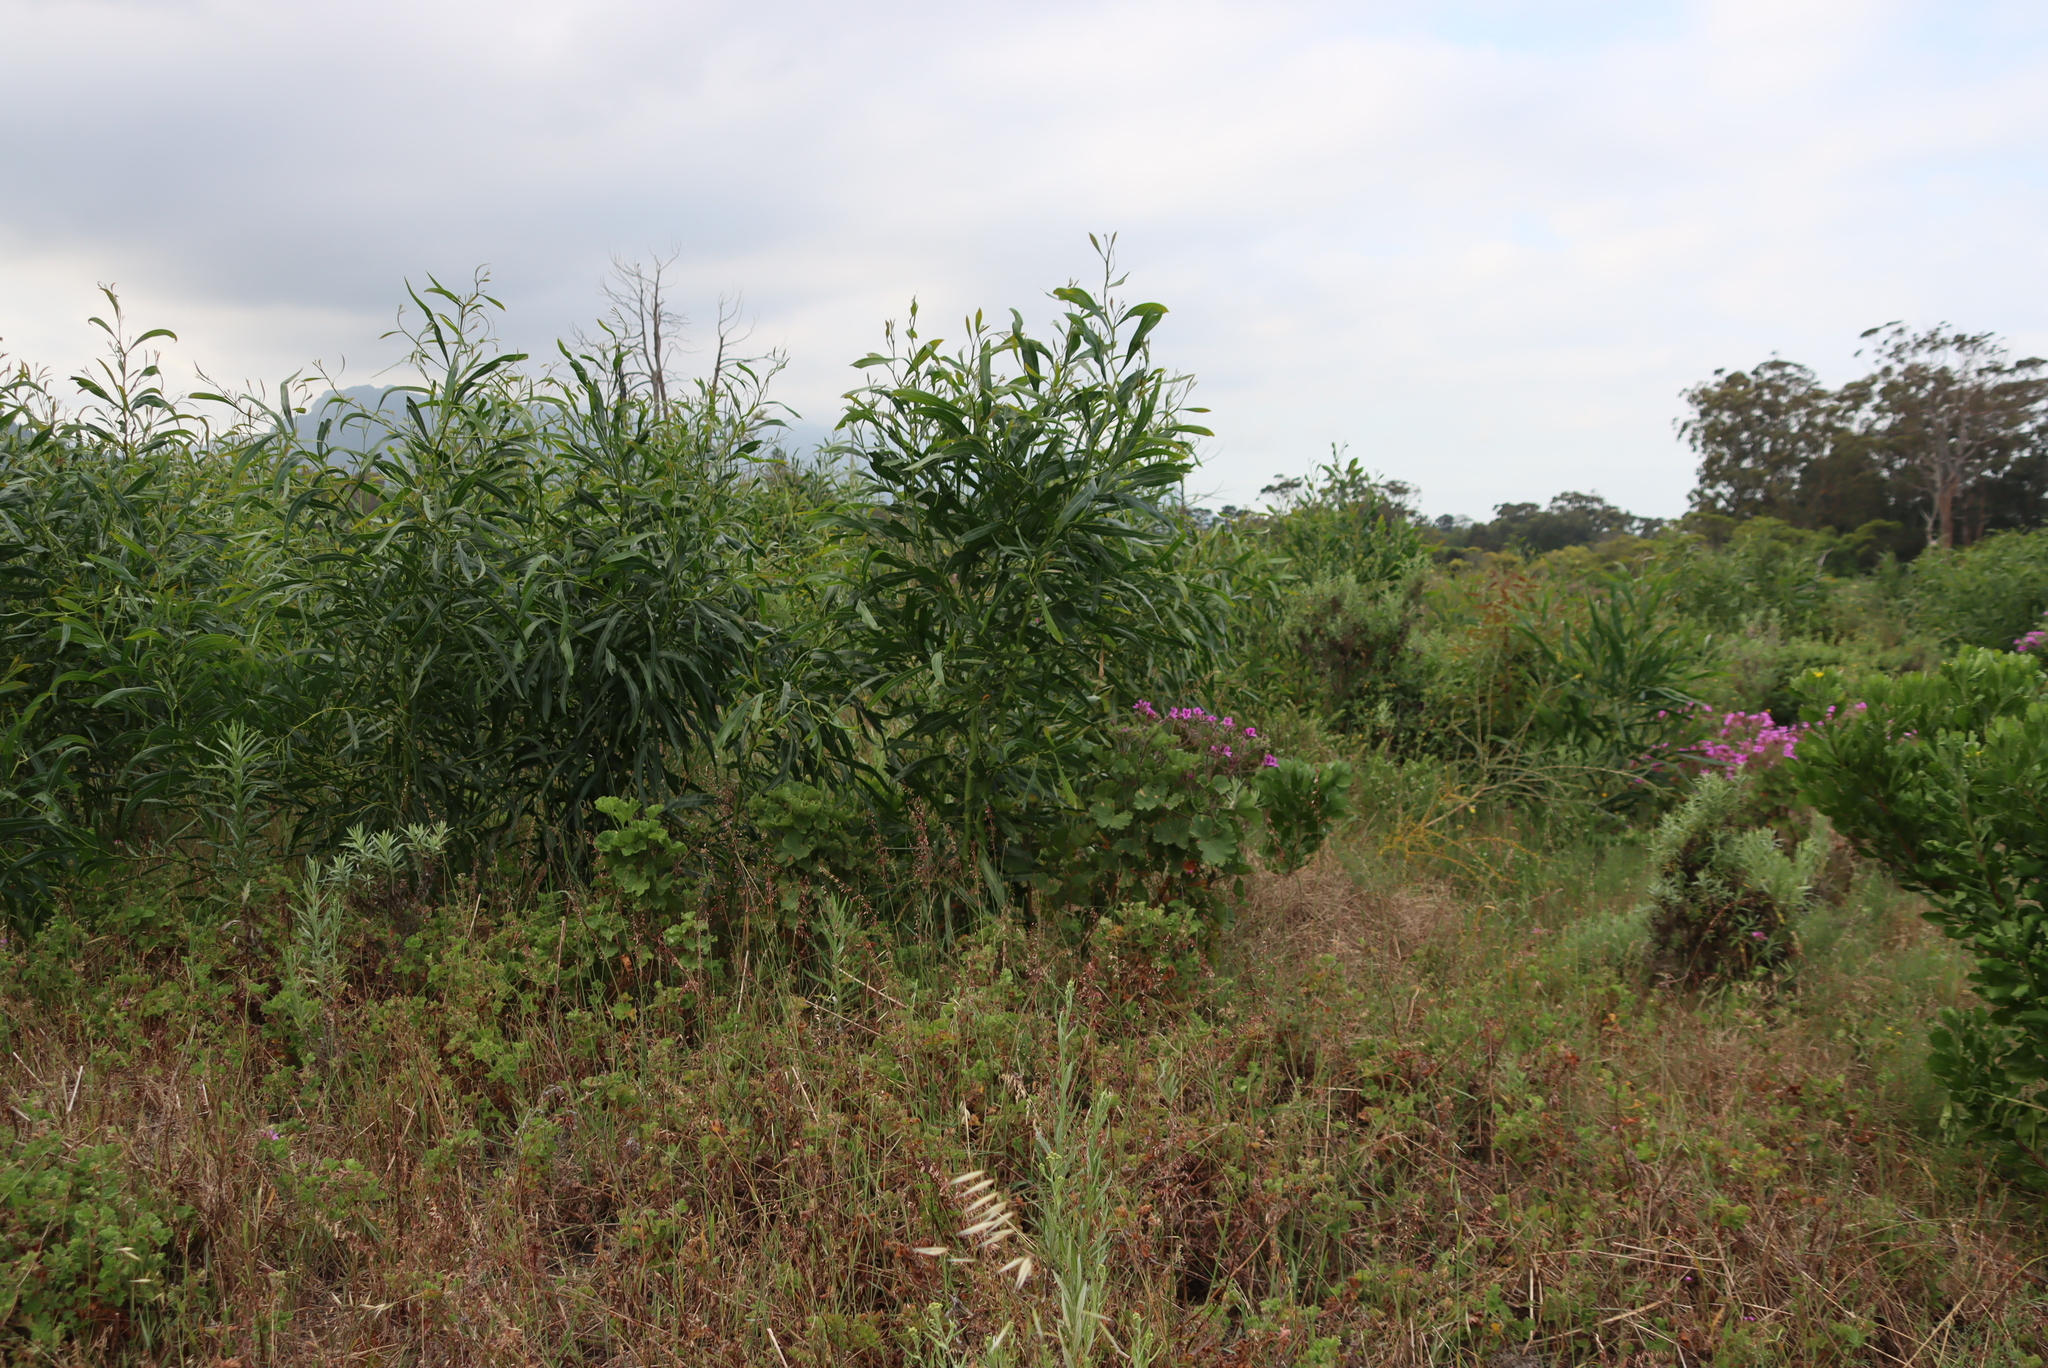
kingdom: Plantae
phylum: Tracheophyta
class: Magnoliopsida
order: Fabales
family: Fabaceae
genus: Acacia
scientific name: Acacia saligna
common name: Orange wattle
